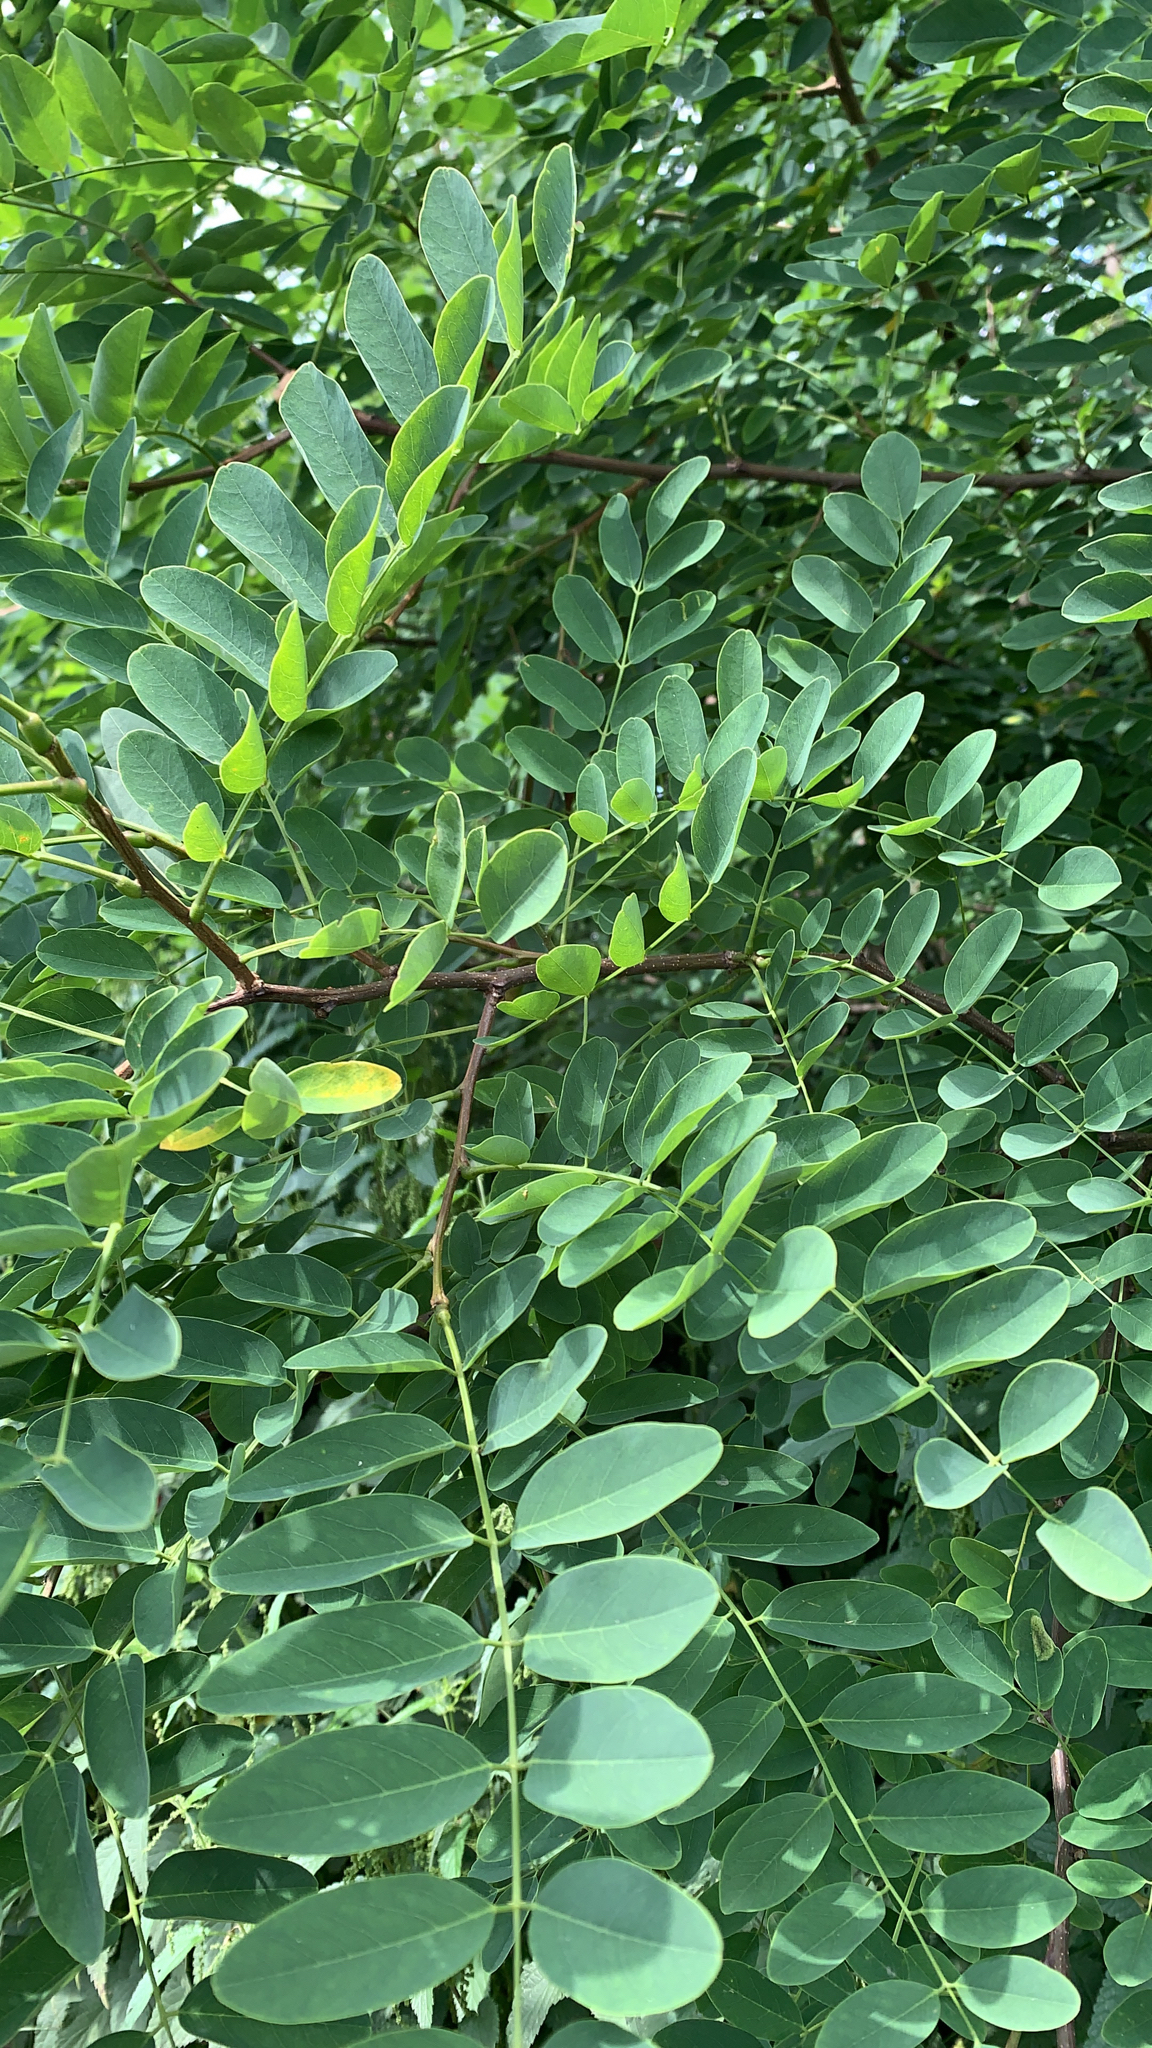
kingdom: Plantae
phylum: Tracheophyta
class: Magnoliopsida
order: Fabales
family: Fabaceae
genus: Robinia
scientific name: Robinia pseudoacacia
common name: Black locust
